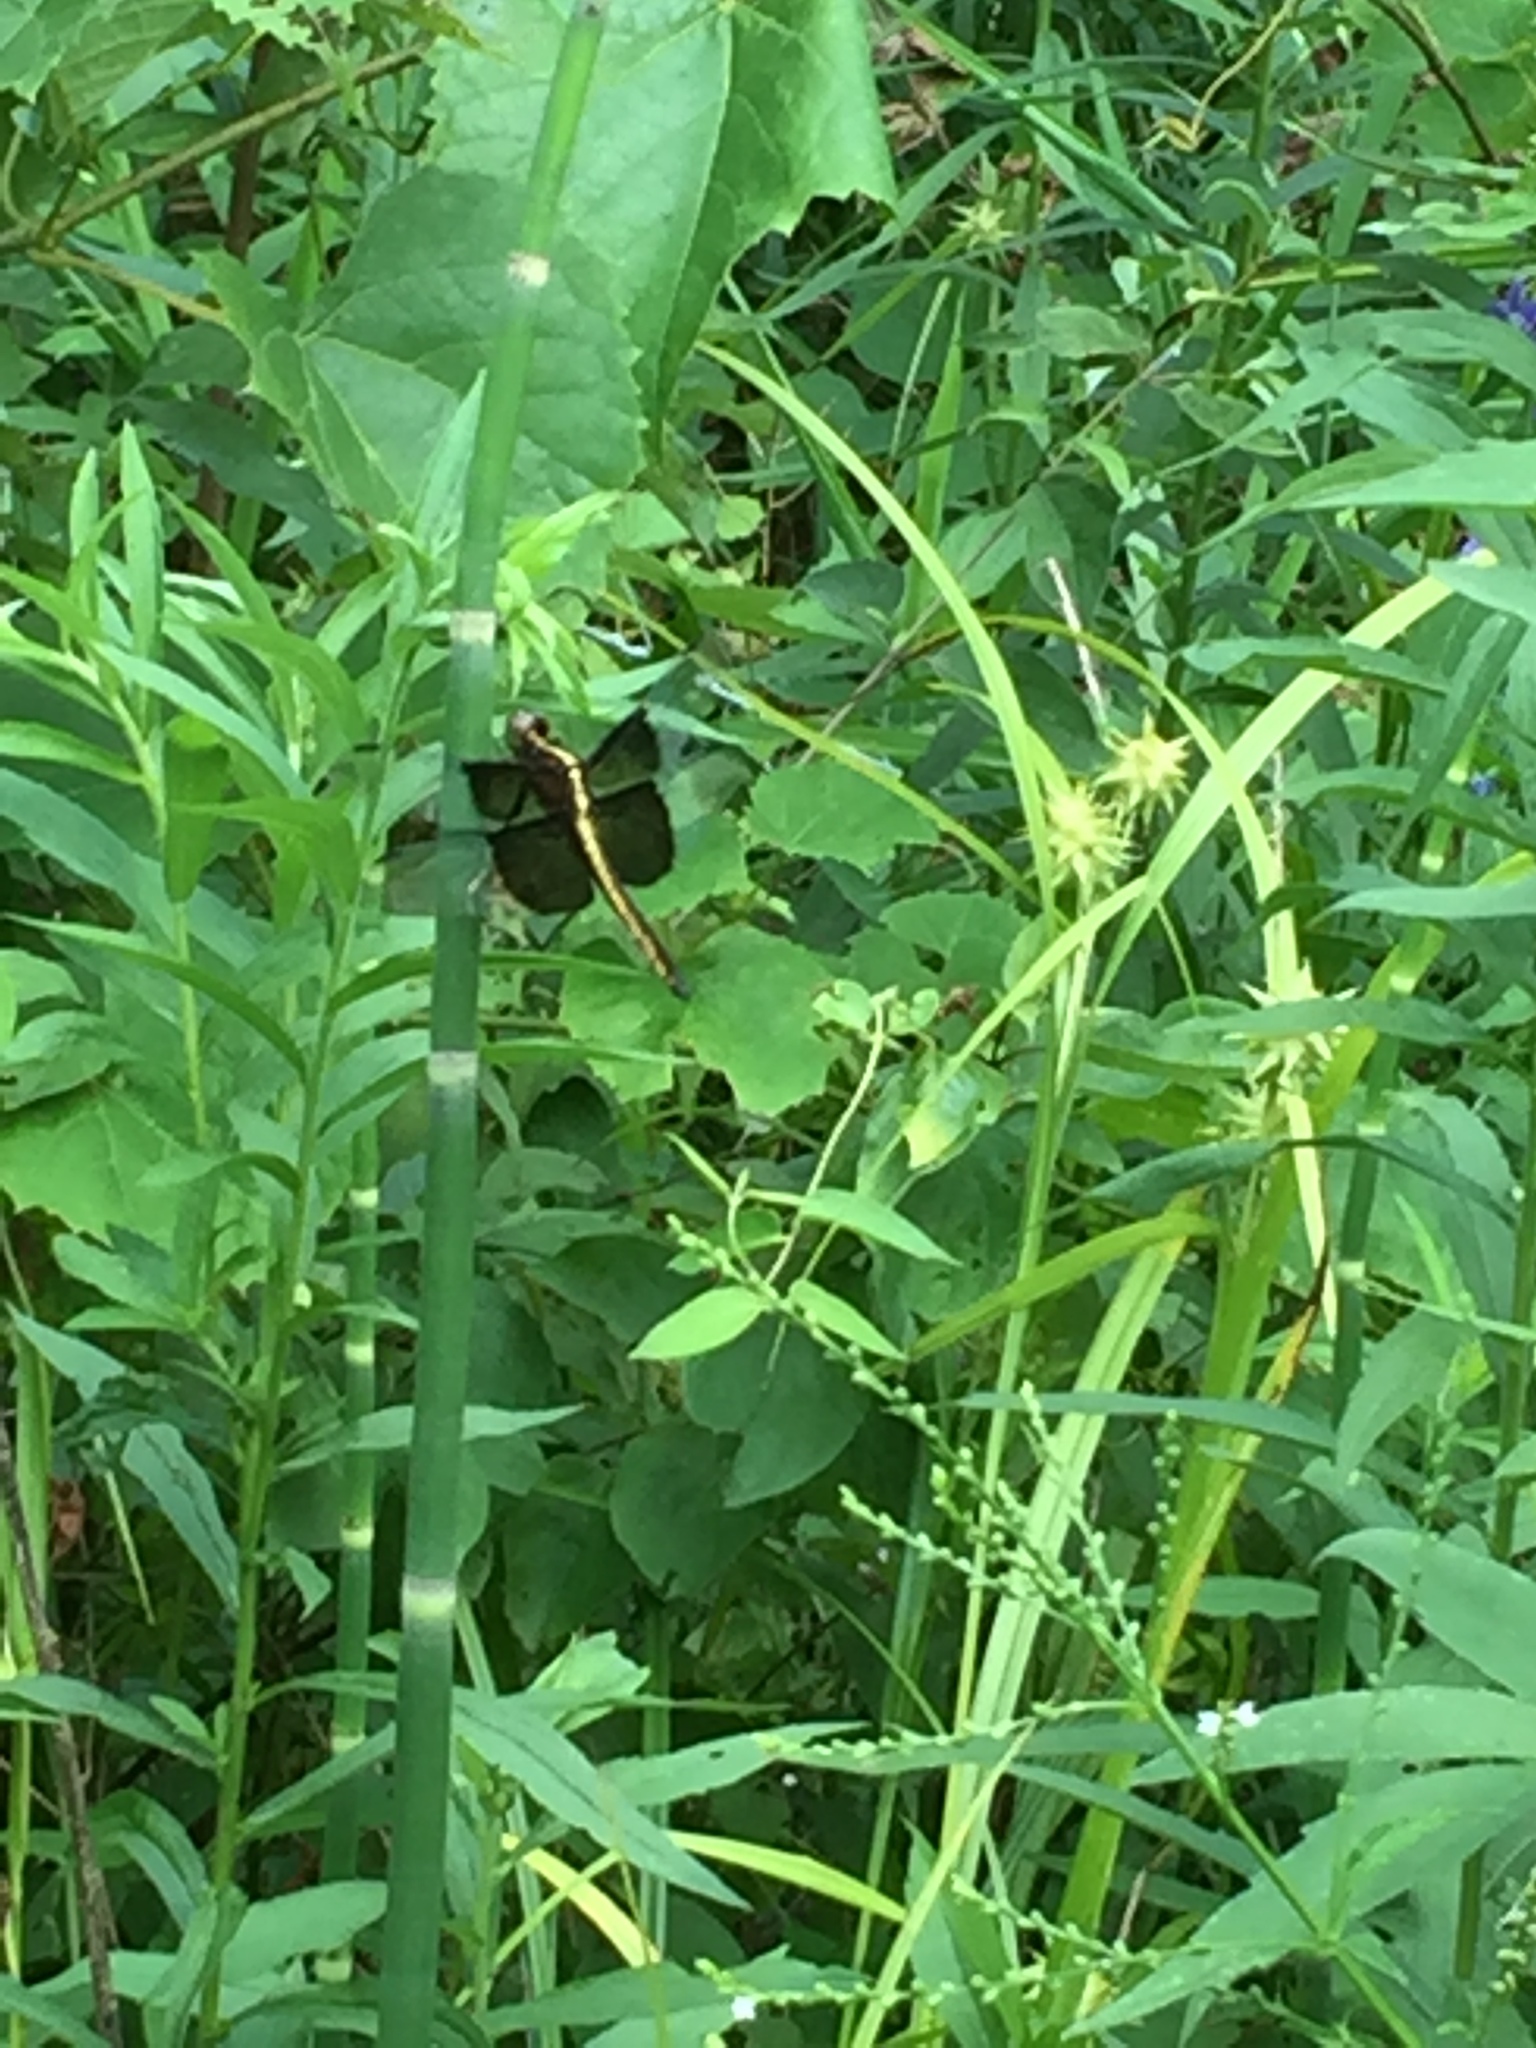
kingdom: Animalia
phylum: Arthropoda
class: Insecta
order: Odonata
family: Libellulidae
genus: Libellula
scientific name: Libellula luctuosa
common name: Widow skimmer
